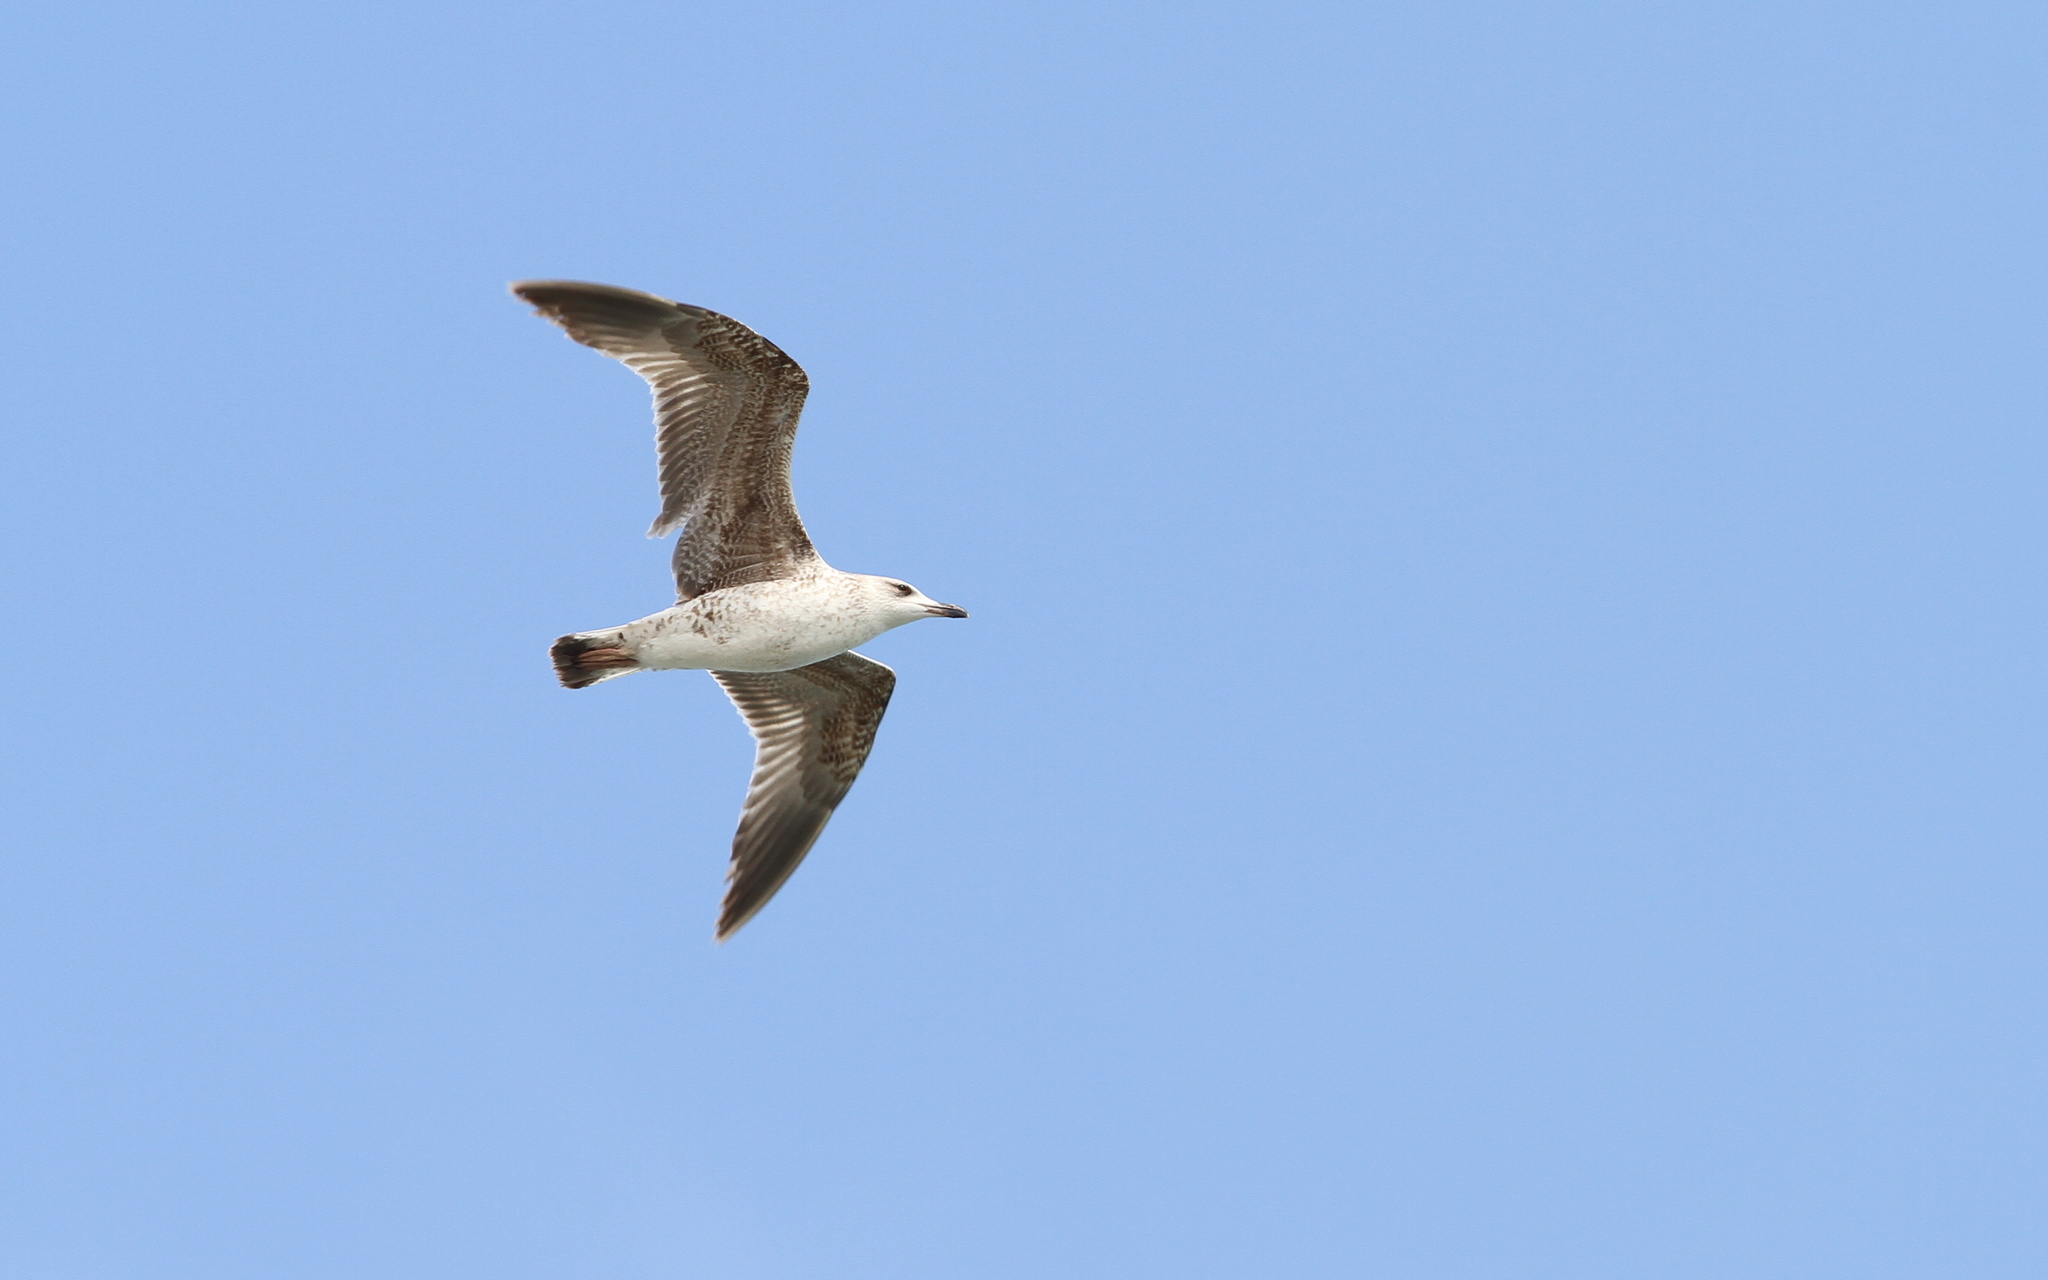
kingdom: Animalia
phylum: Chordata
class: Aves
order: Charadriiformes
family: Laridae
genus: Larus
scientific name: Larus michahellis
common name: Yellow-legged gull
